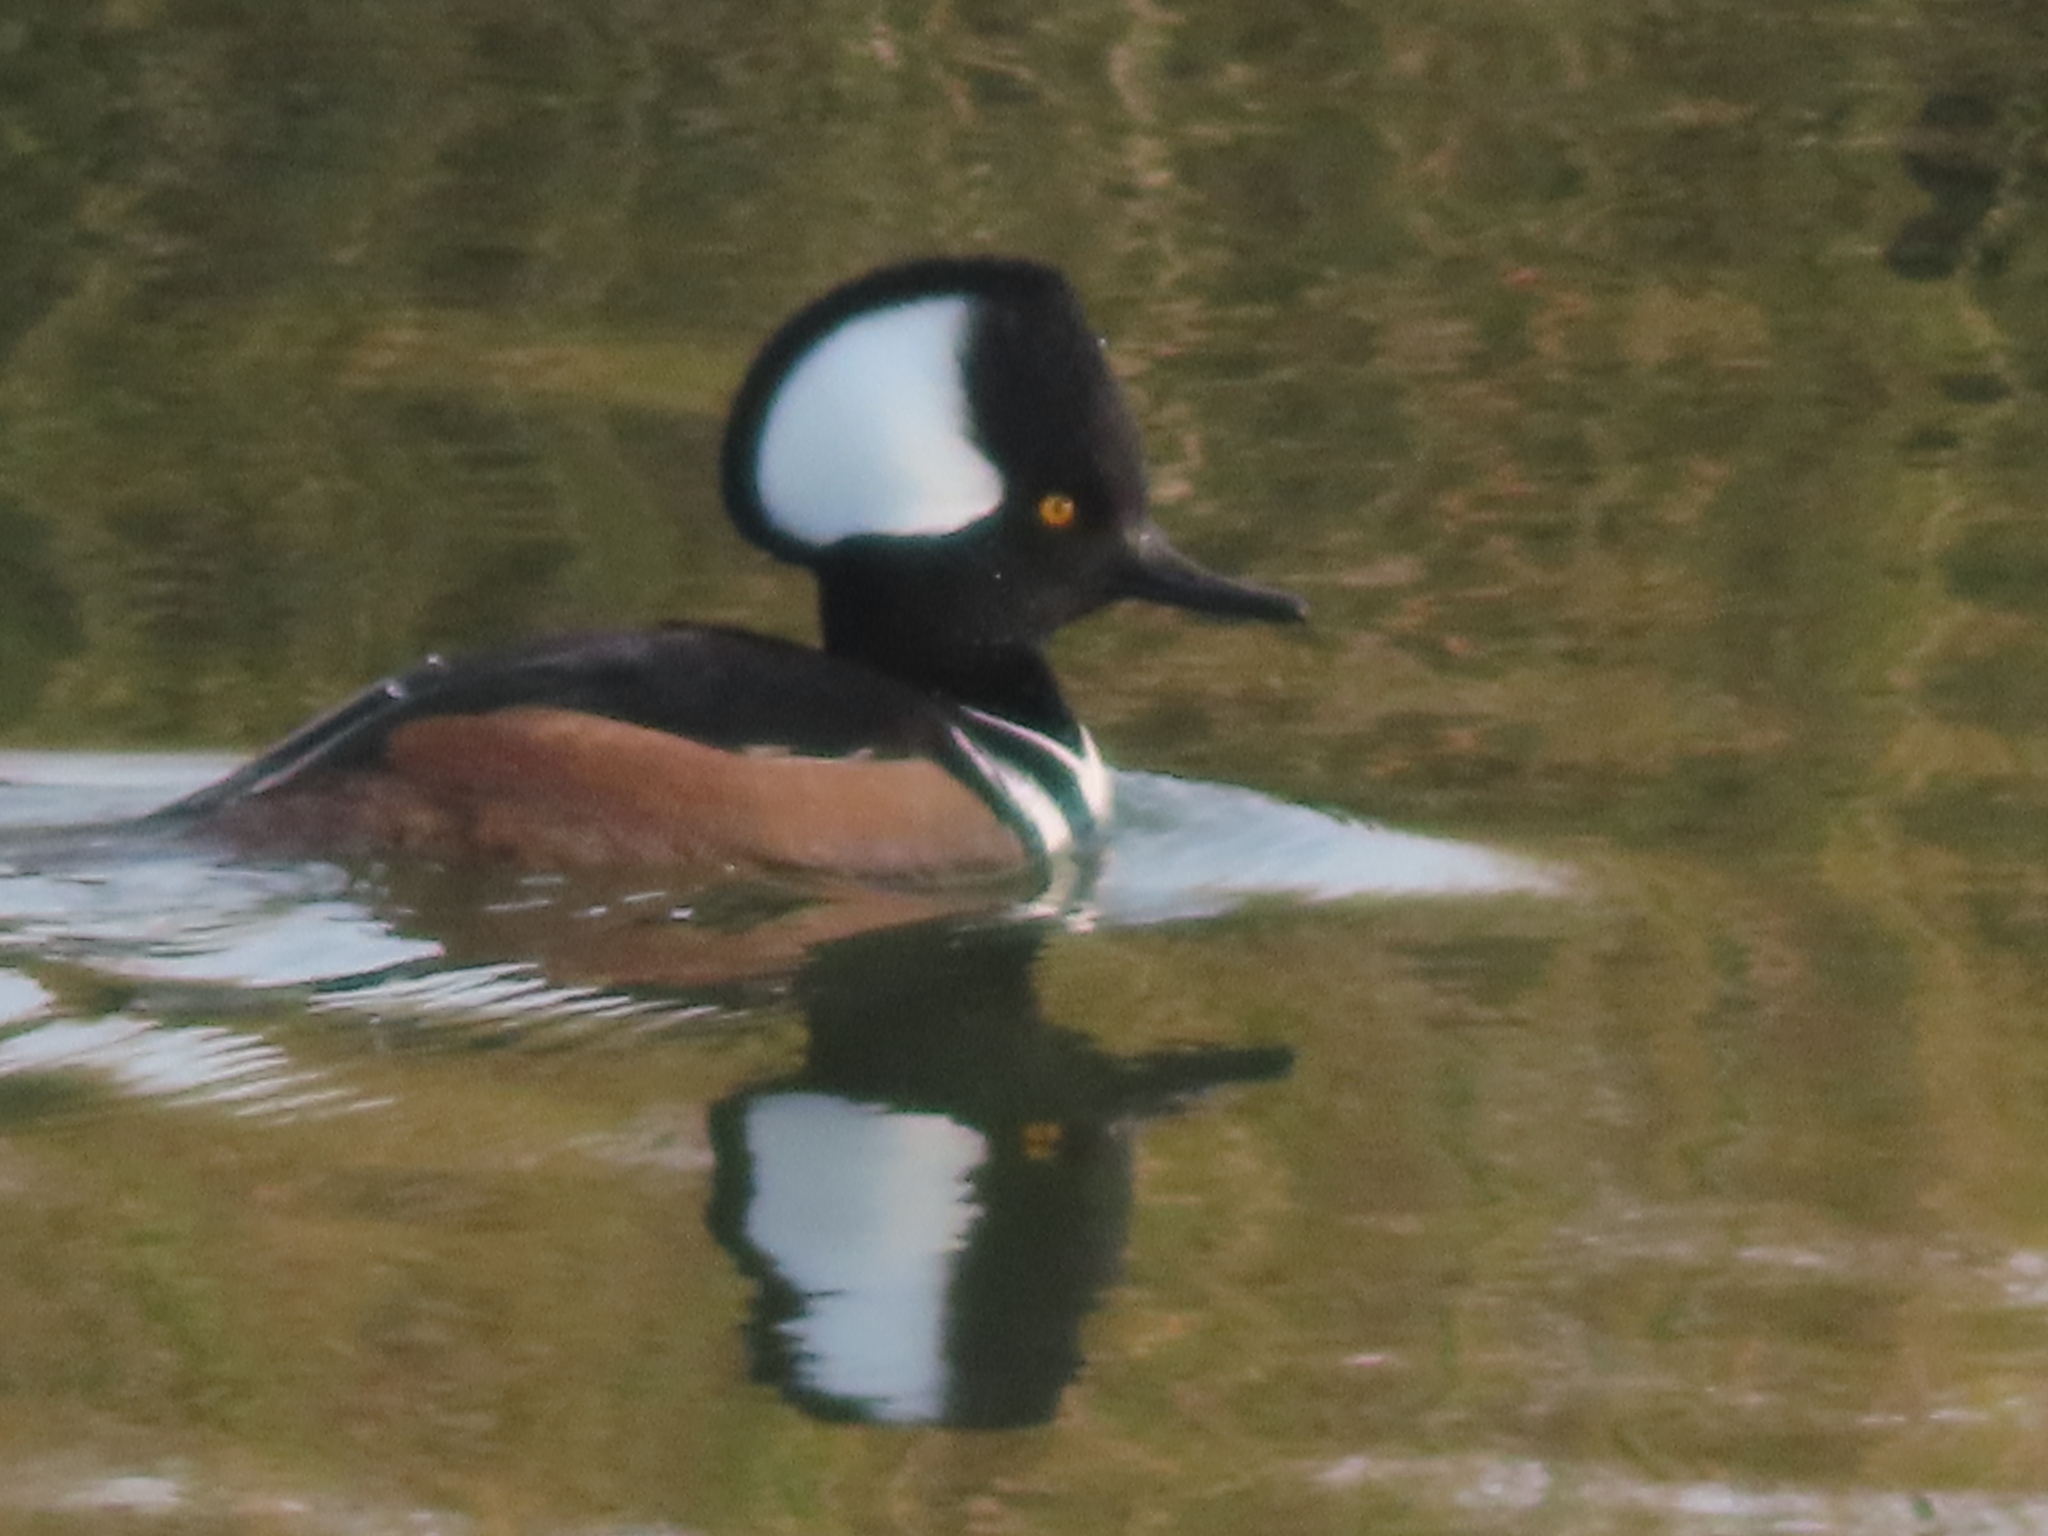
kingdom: Animalia
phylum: Chordata
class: Aves
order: Anseriformes
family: Anatidae
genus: Lophodytes
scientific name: Lophodytes cucullatus
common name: Hooded merganser
